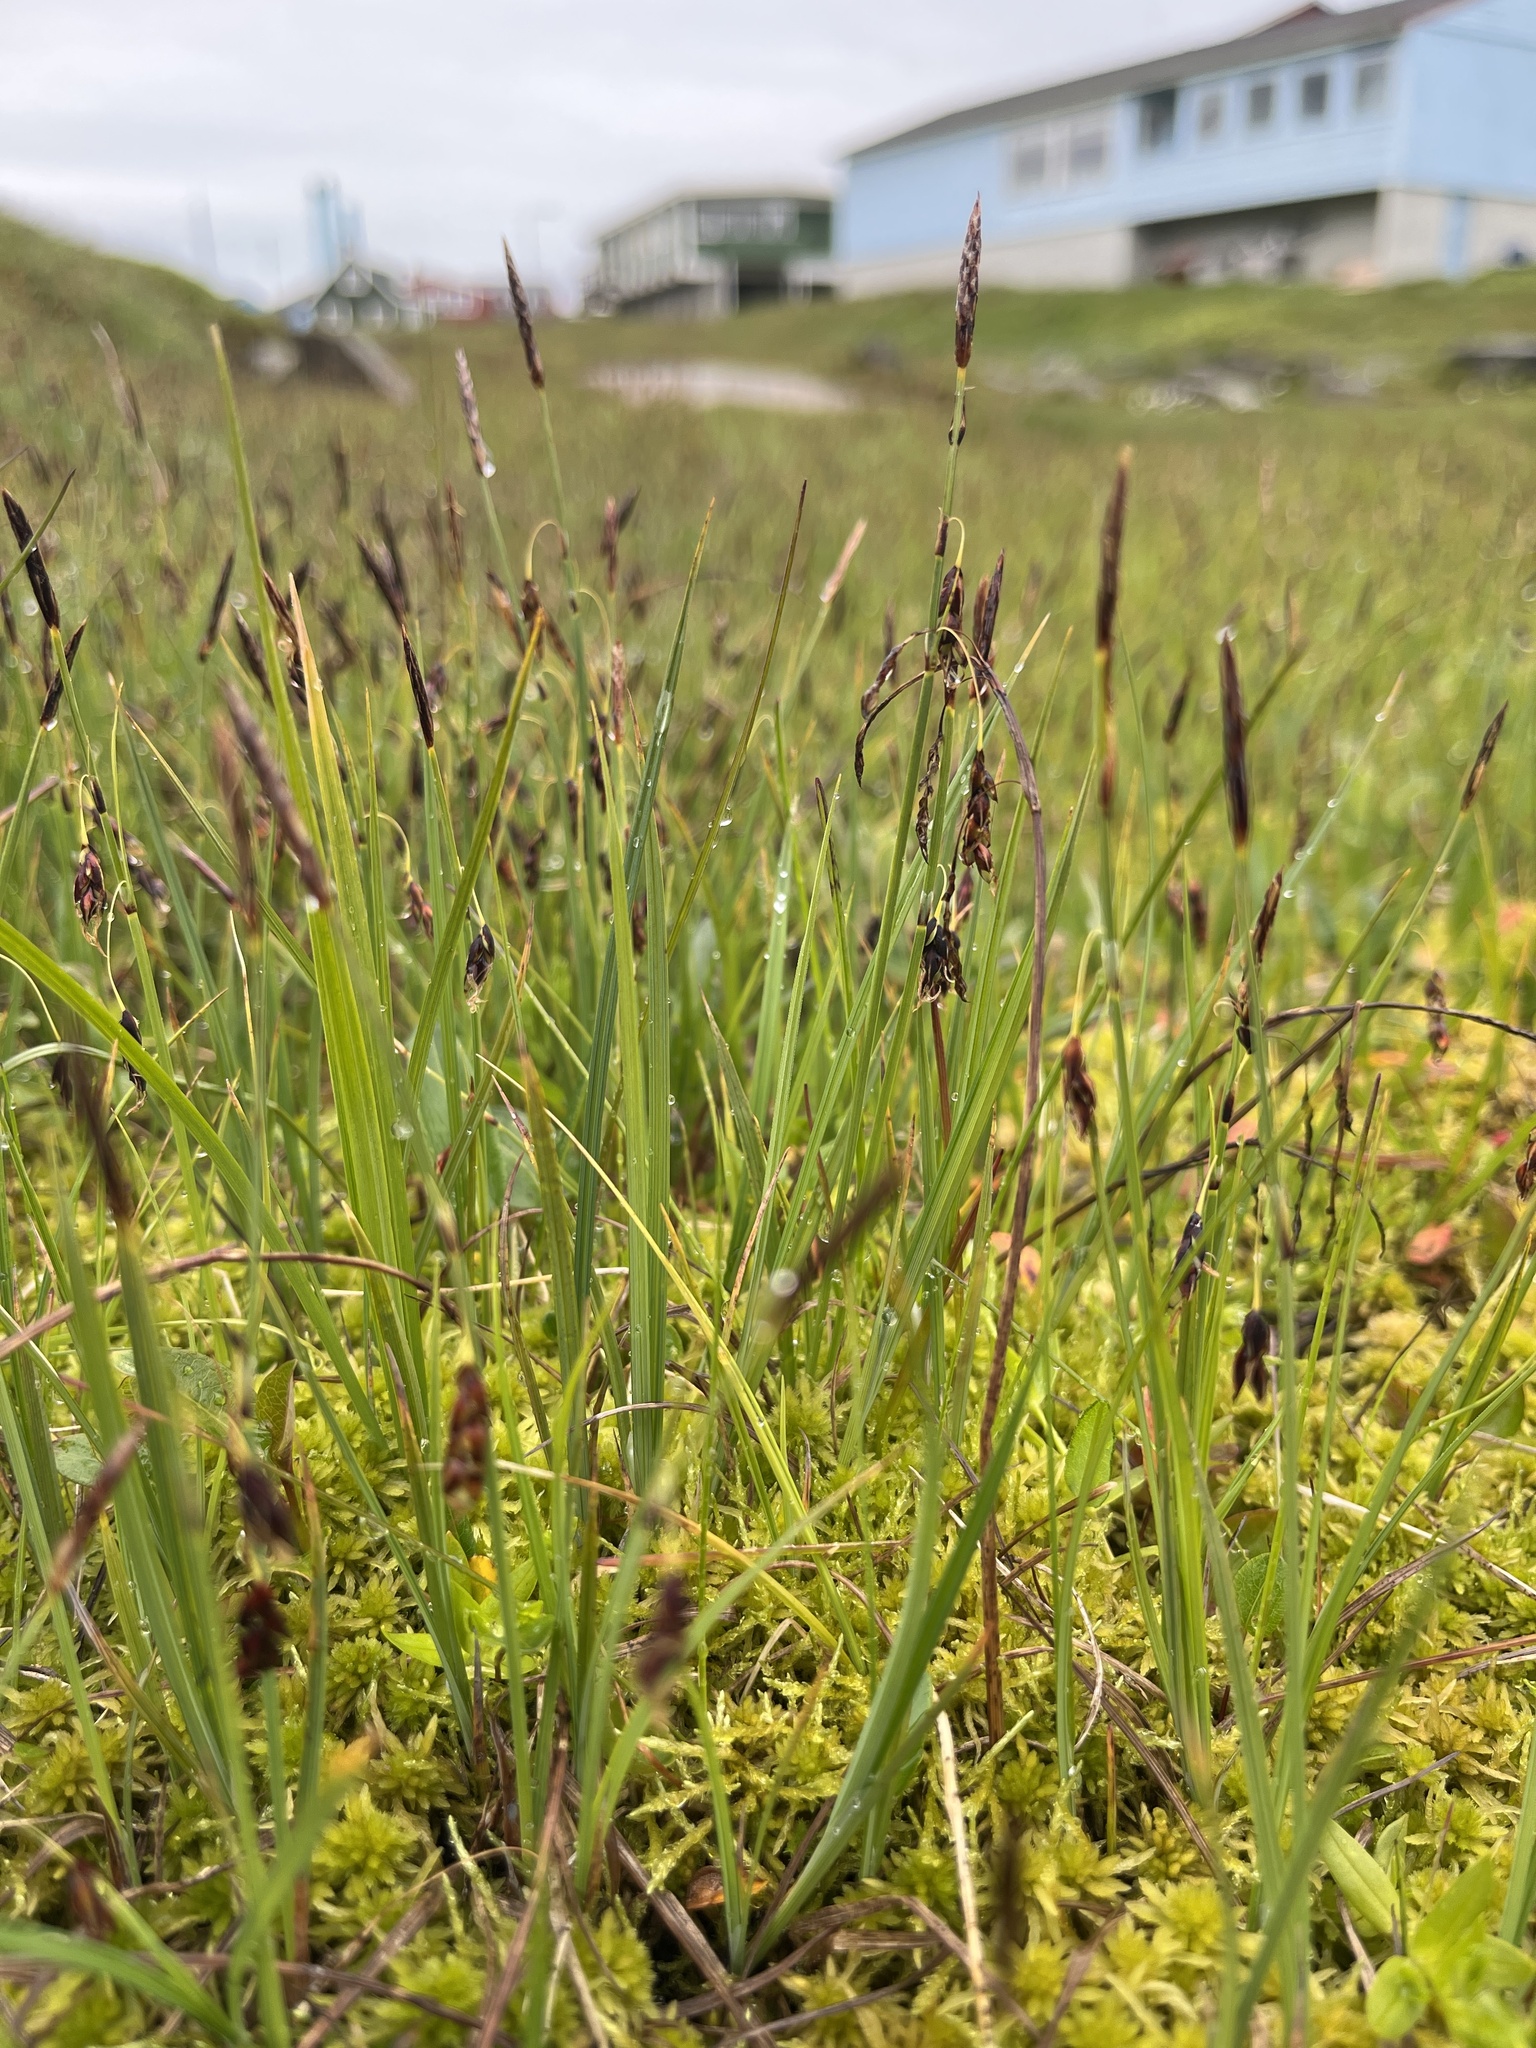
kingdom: Plantae
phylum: Tracheophyta
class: Liliopsida
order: Poales
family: Cyperaceae
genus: Carex
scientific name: Carex rariflora
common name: Loose-flowered alpine sedge
